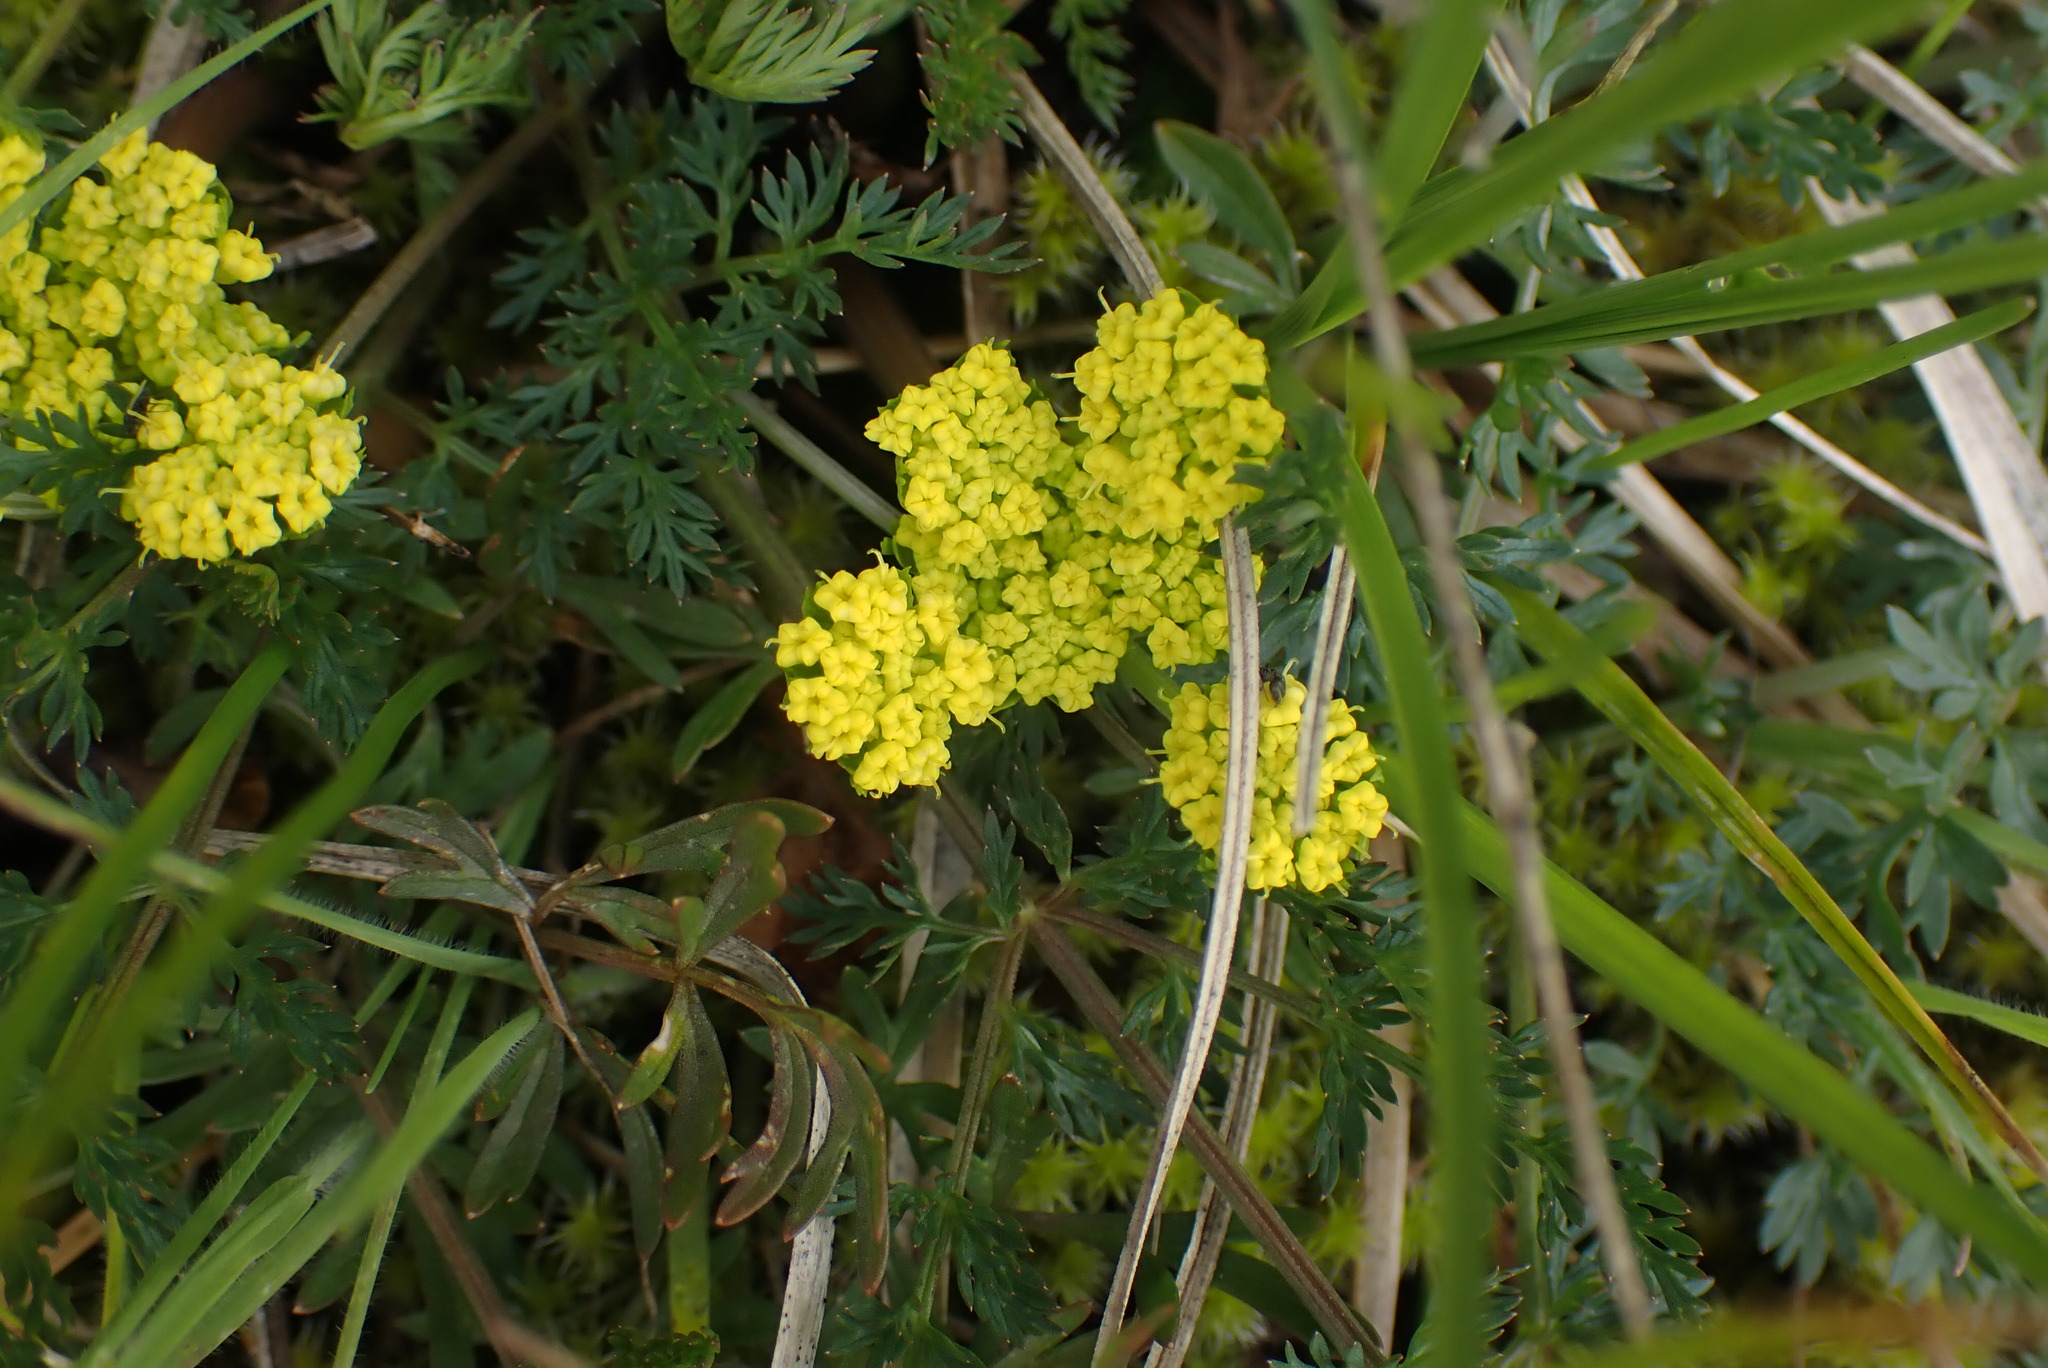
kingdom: Plantae
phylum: Tracheophyta
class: Magnoliopsida
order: Apiales
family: Apiaceae
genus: Lomatium
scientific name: Lomatium utriculatum
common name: Fine-leaf desert-parsley
